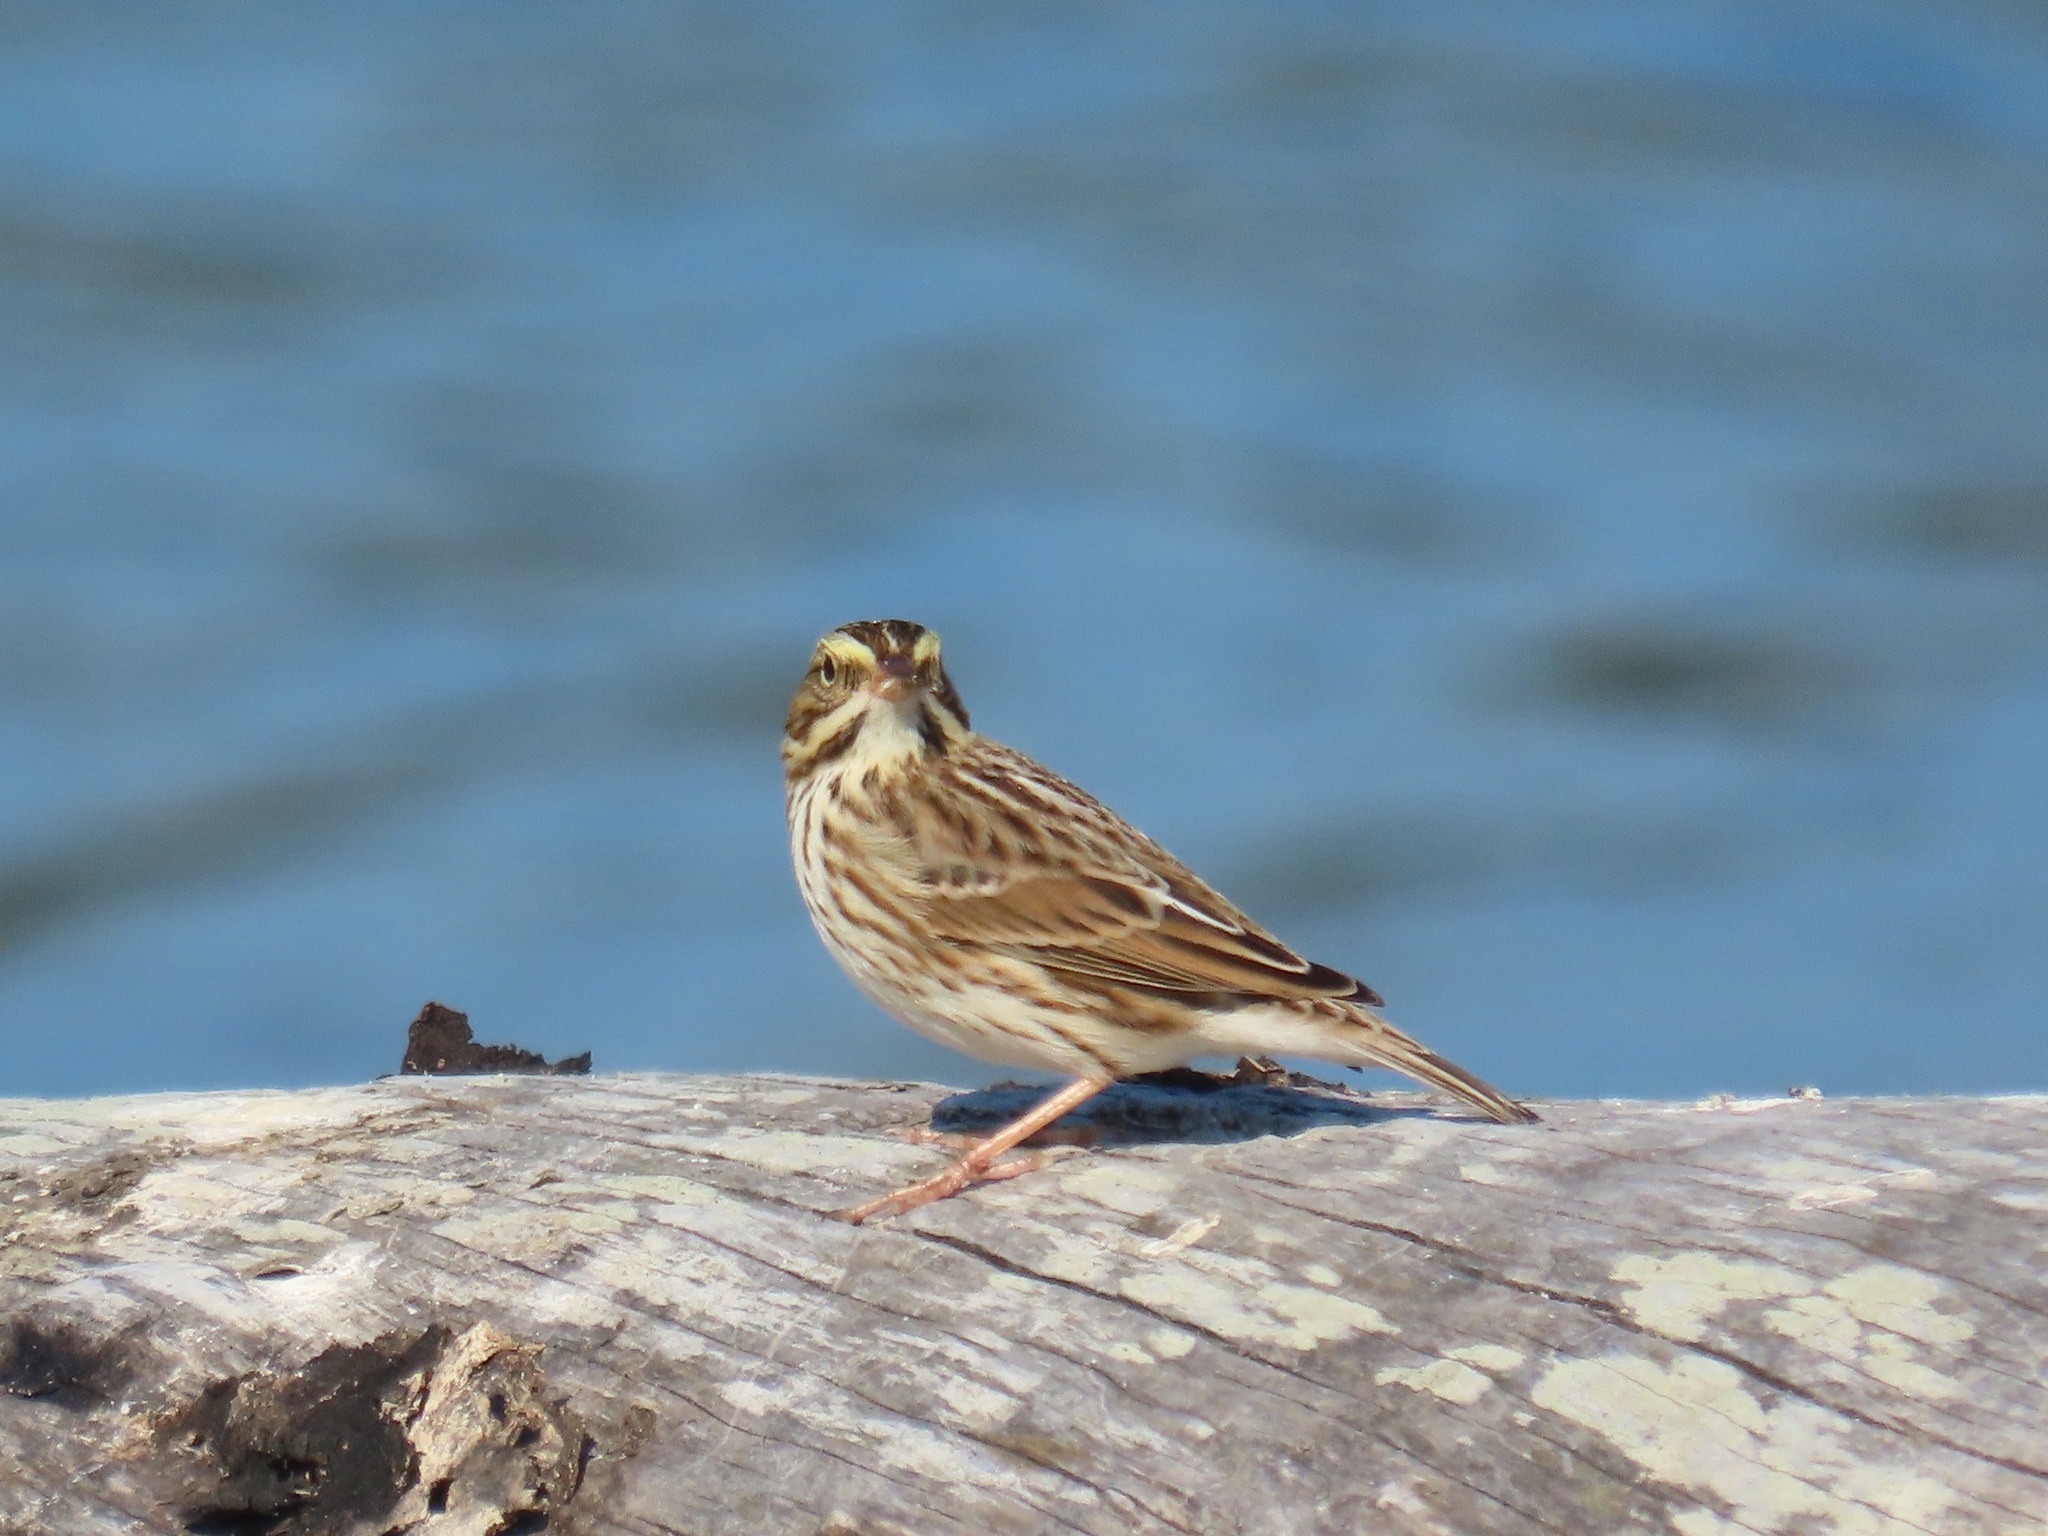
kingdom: Animalia
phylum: Chordata
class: Aves
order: Passeriformes
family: Passerellidae
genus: Passerculus
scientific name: Passerculus sandwichensis
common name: Savannah sparrow
